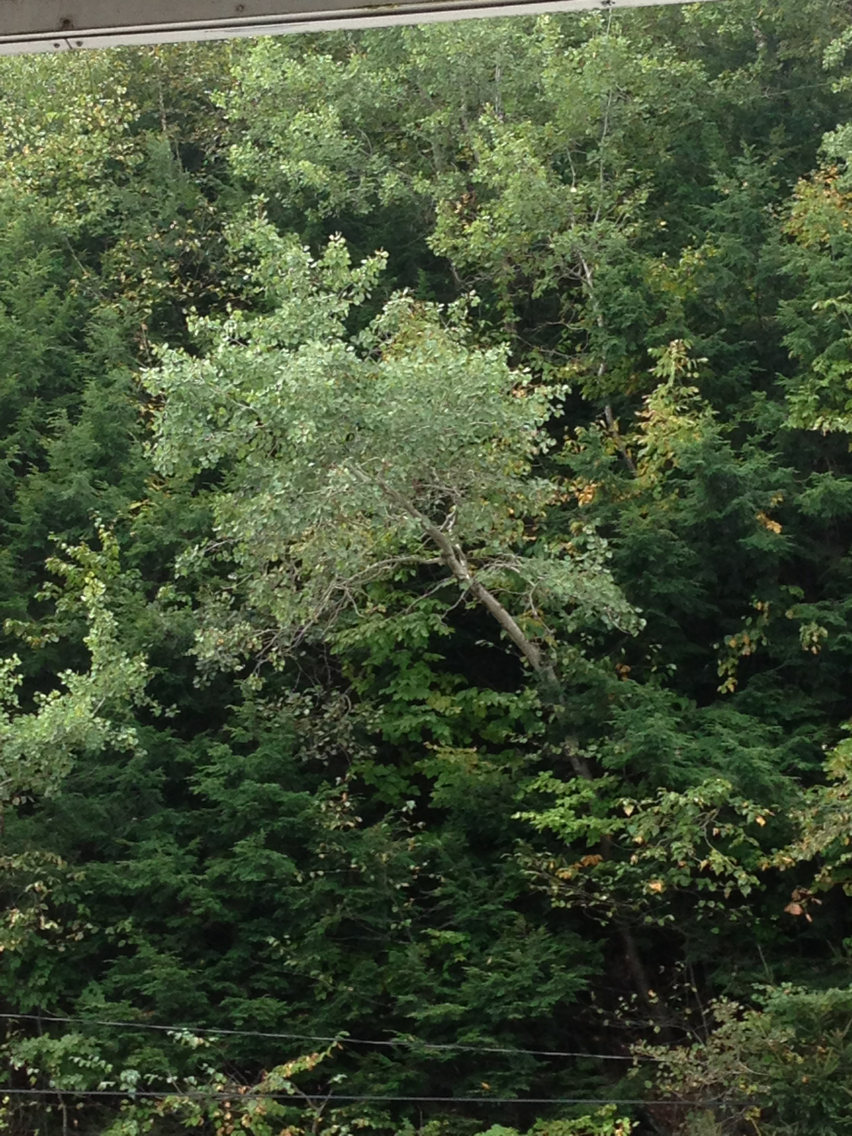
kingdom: Plantae
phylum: Tracheophyta
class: Magnoliopsida
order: Malpighiales
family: Salicaceae
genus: Populus
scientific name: Populus tremuloides
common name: Quaking aspen
